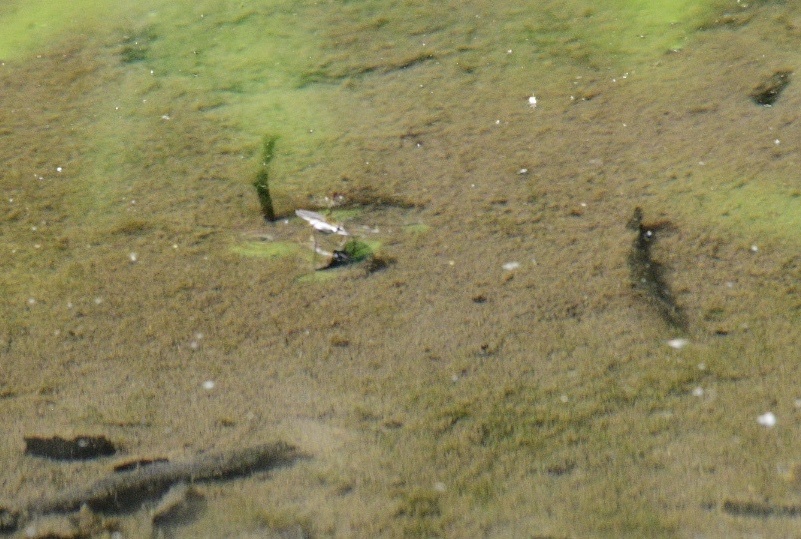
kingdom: Animalia
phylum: Arthropoda
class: Insecta
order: Hemiptera
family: Gerridae
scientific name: Gerridae
